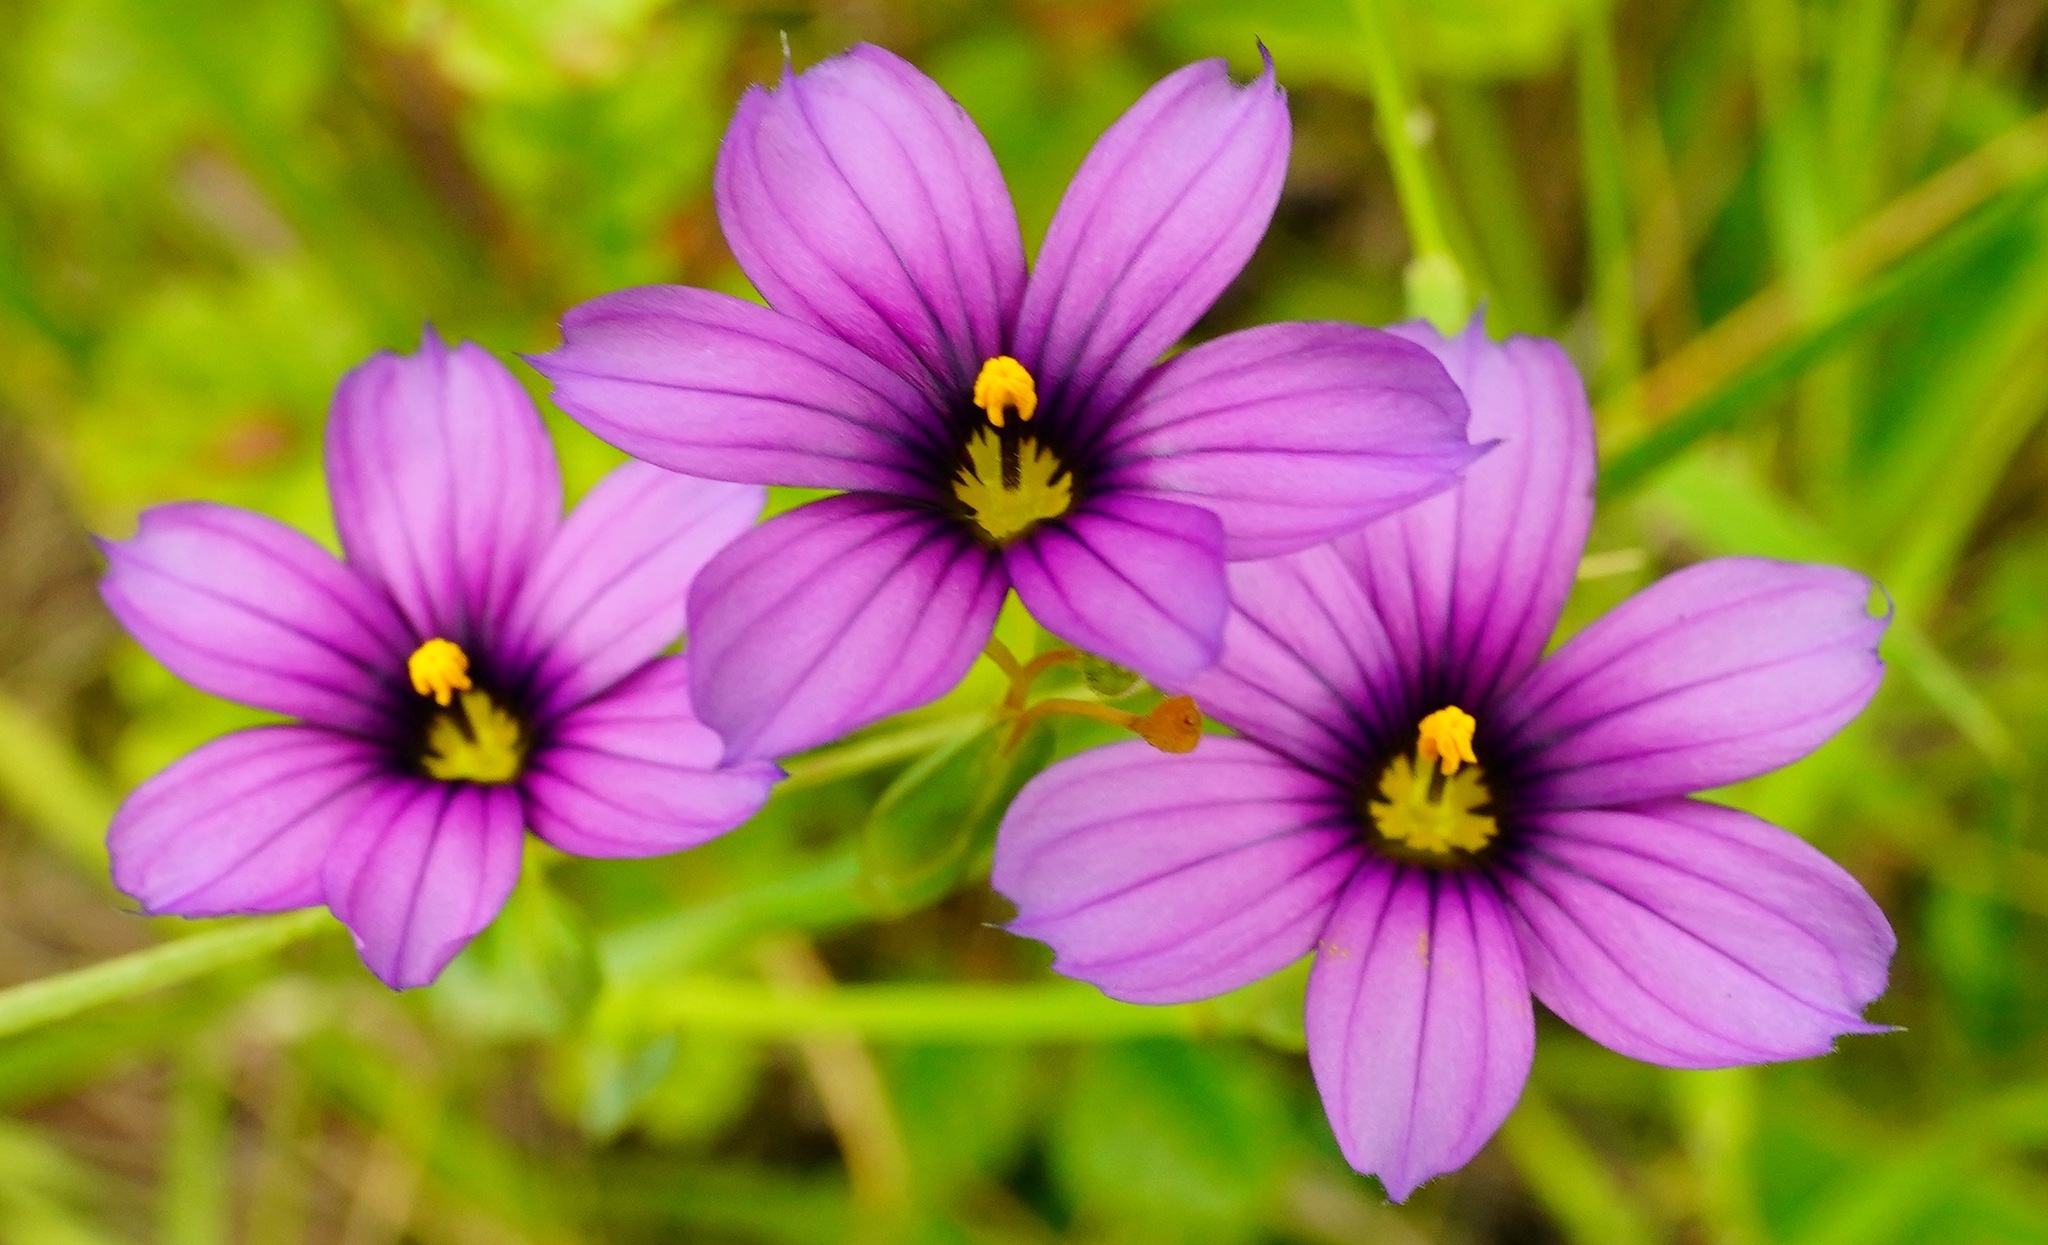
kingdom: Plantae
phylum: Tracheophyta
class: Liliopsida
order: Asparagales
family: Iridaceae
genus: Sisyrinchium
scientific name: Sisyrinchium bellum
